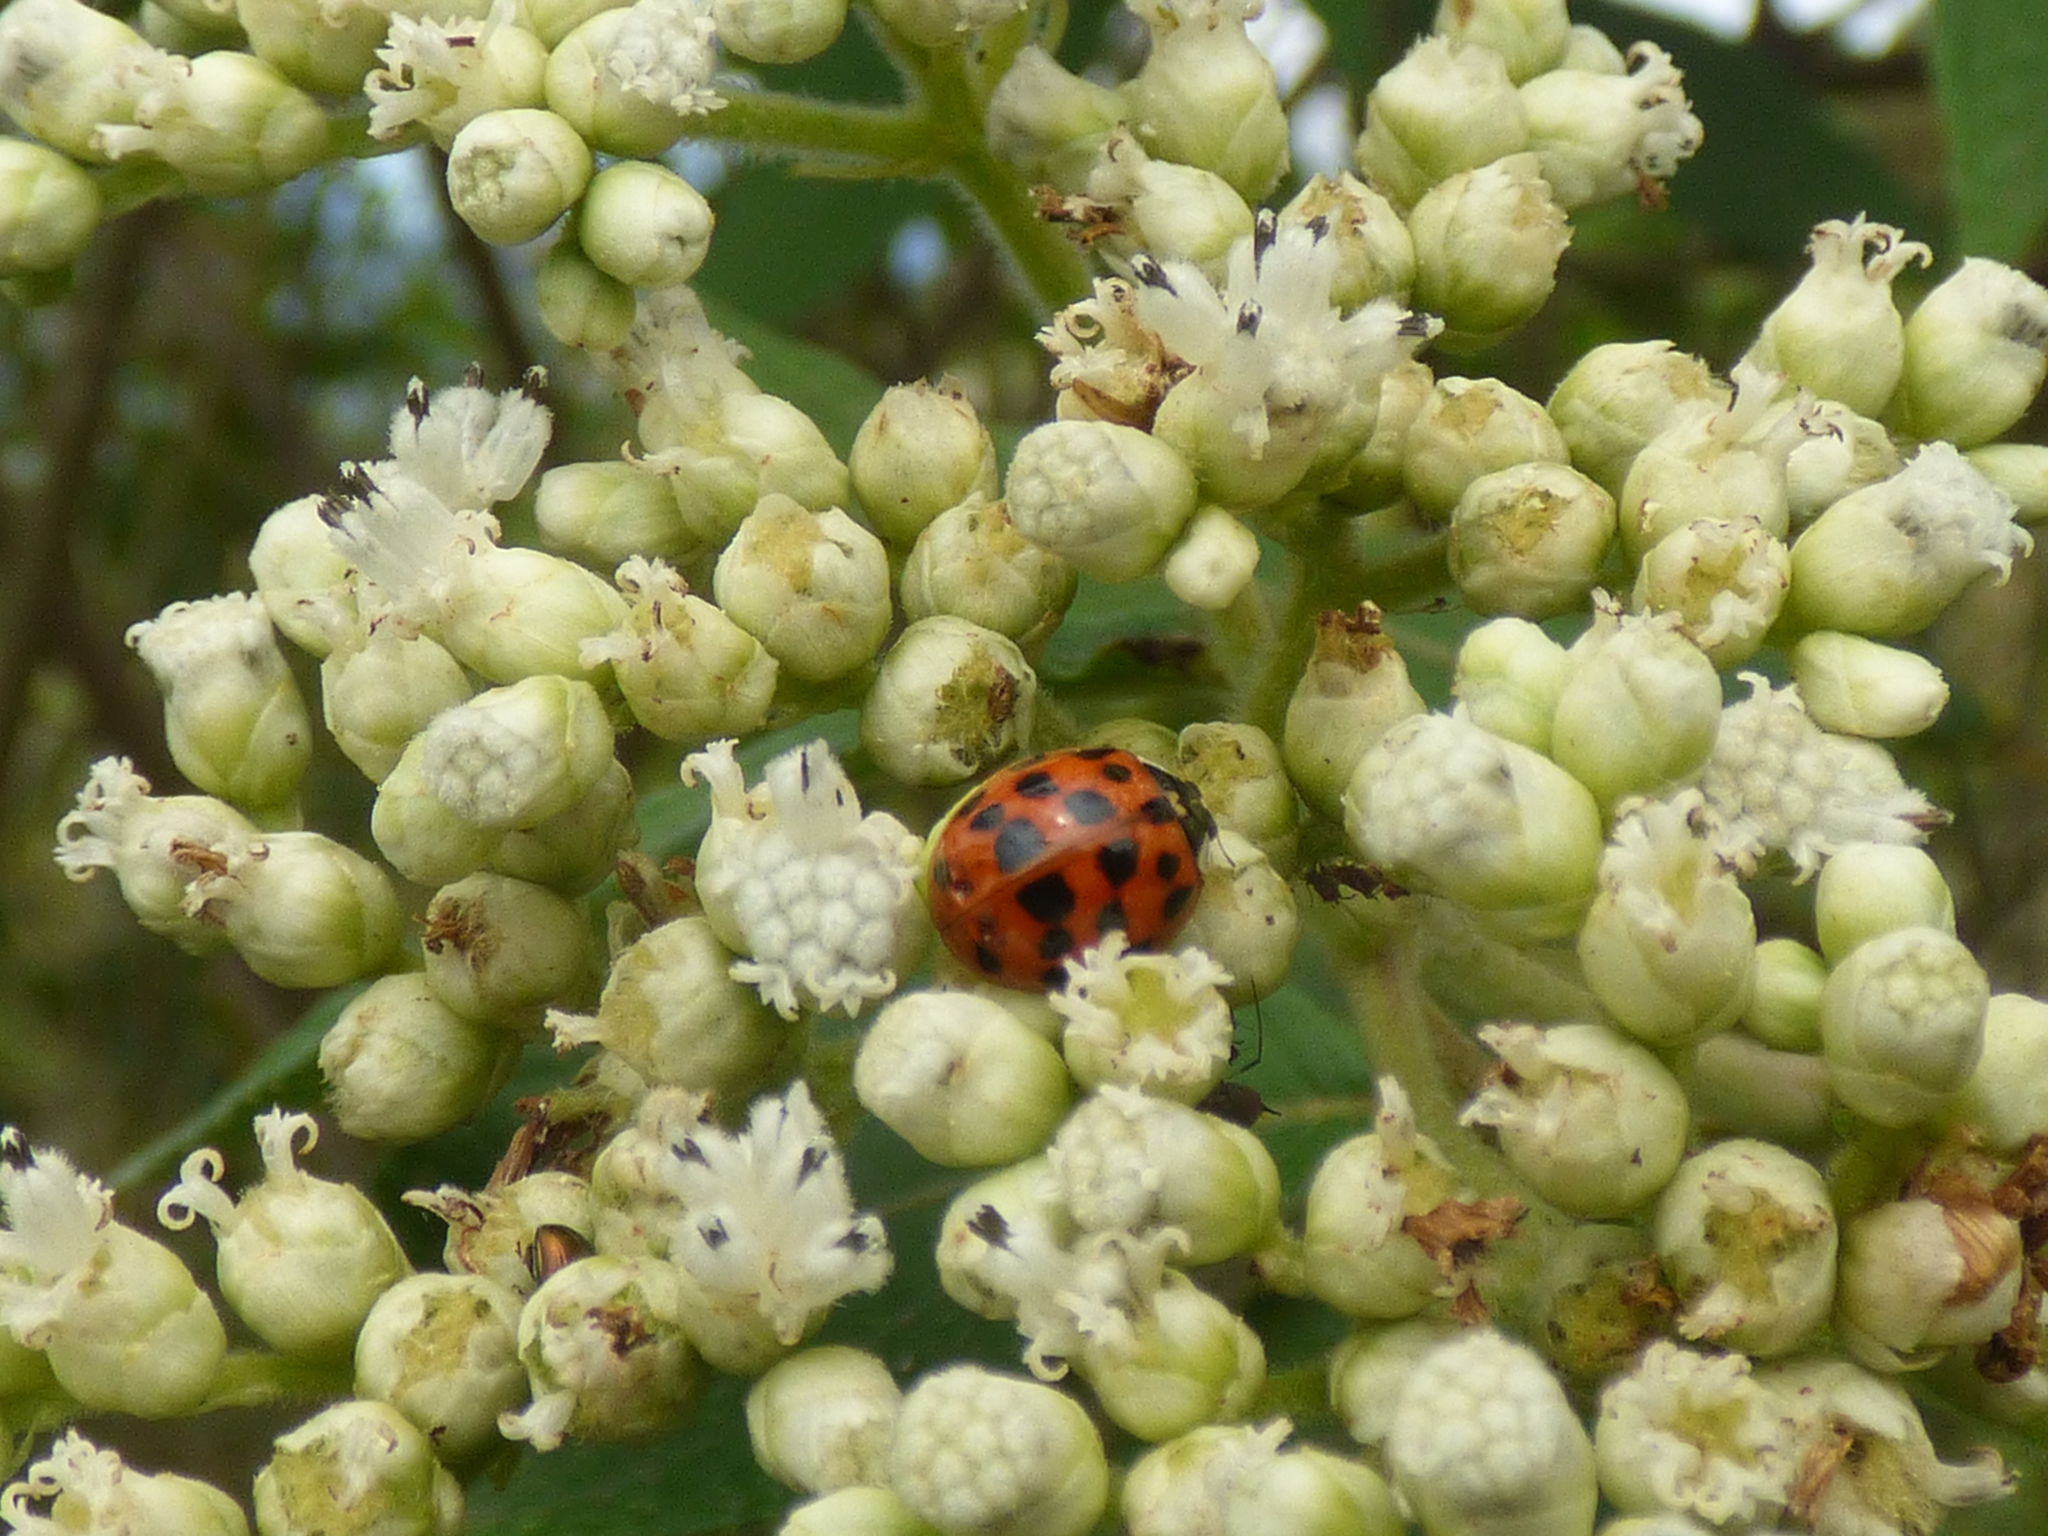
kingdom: Animalia
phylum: Arthropoda
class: Insecta
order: Coleoptera
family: Coccinellidae
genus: Harmonia
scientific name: Harmonia axyridis
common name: Harlequin ladybird
